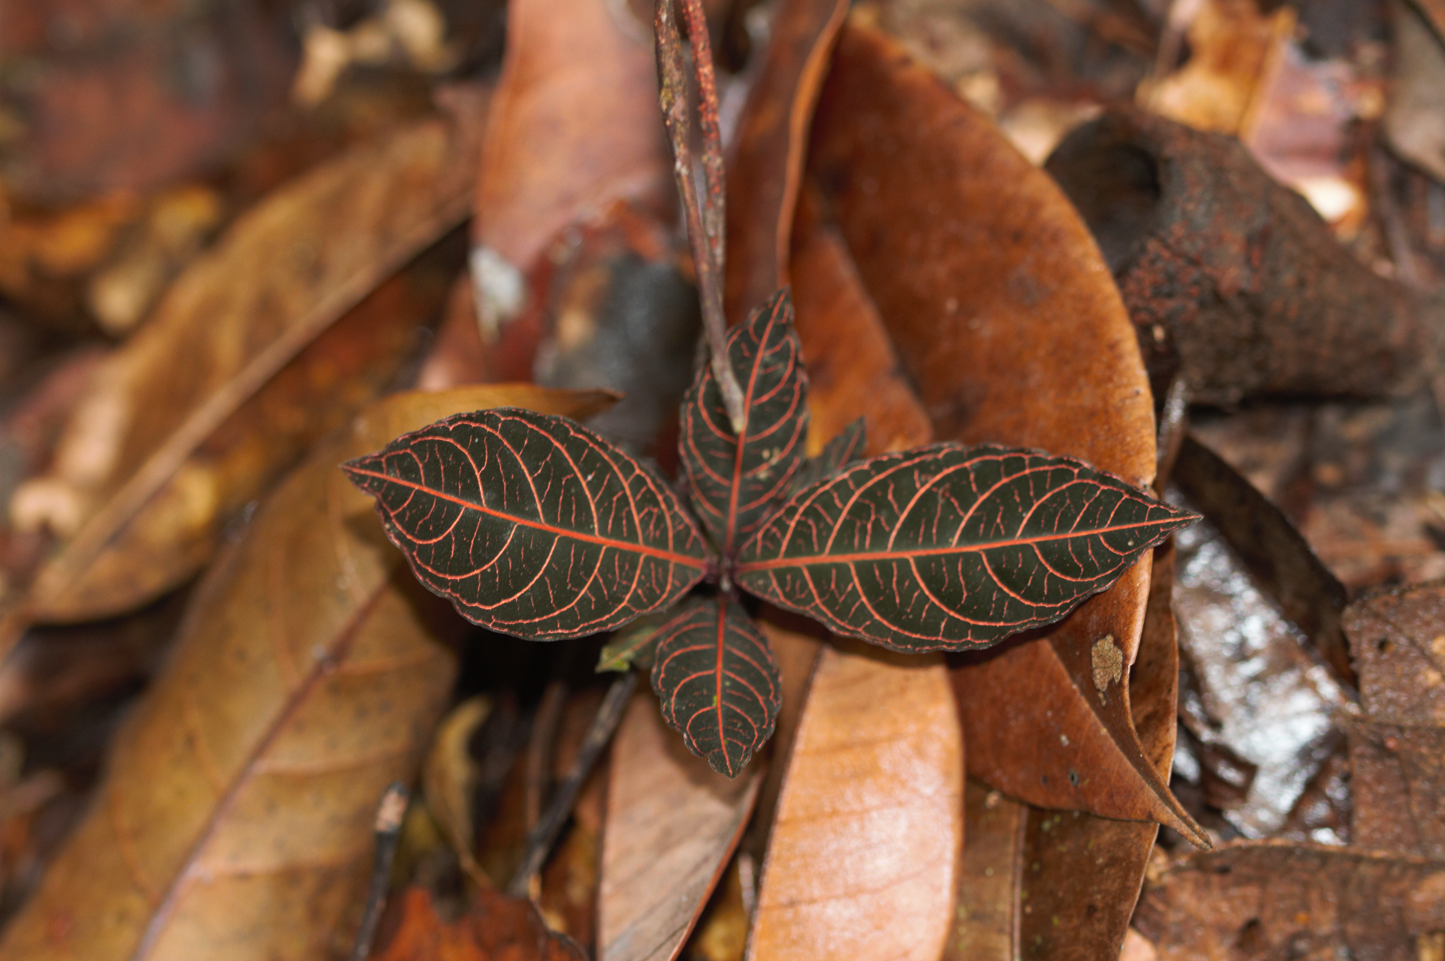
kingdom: Plantae
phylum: Tracheophyta
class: Magnoliopsida
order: Gentianales
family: Rubiaceae
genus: Palicourea
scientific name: Palicourea microbotrys
